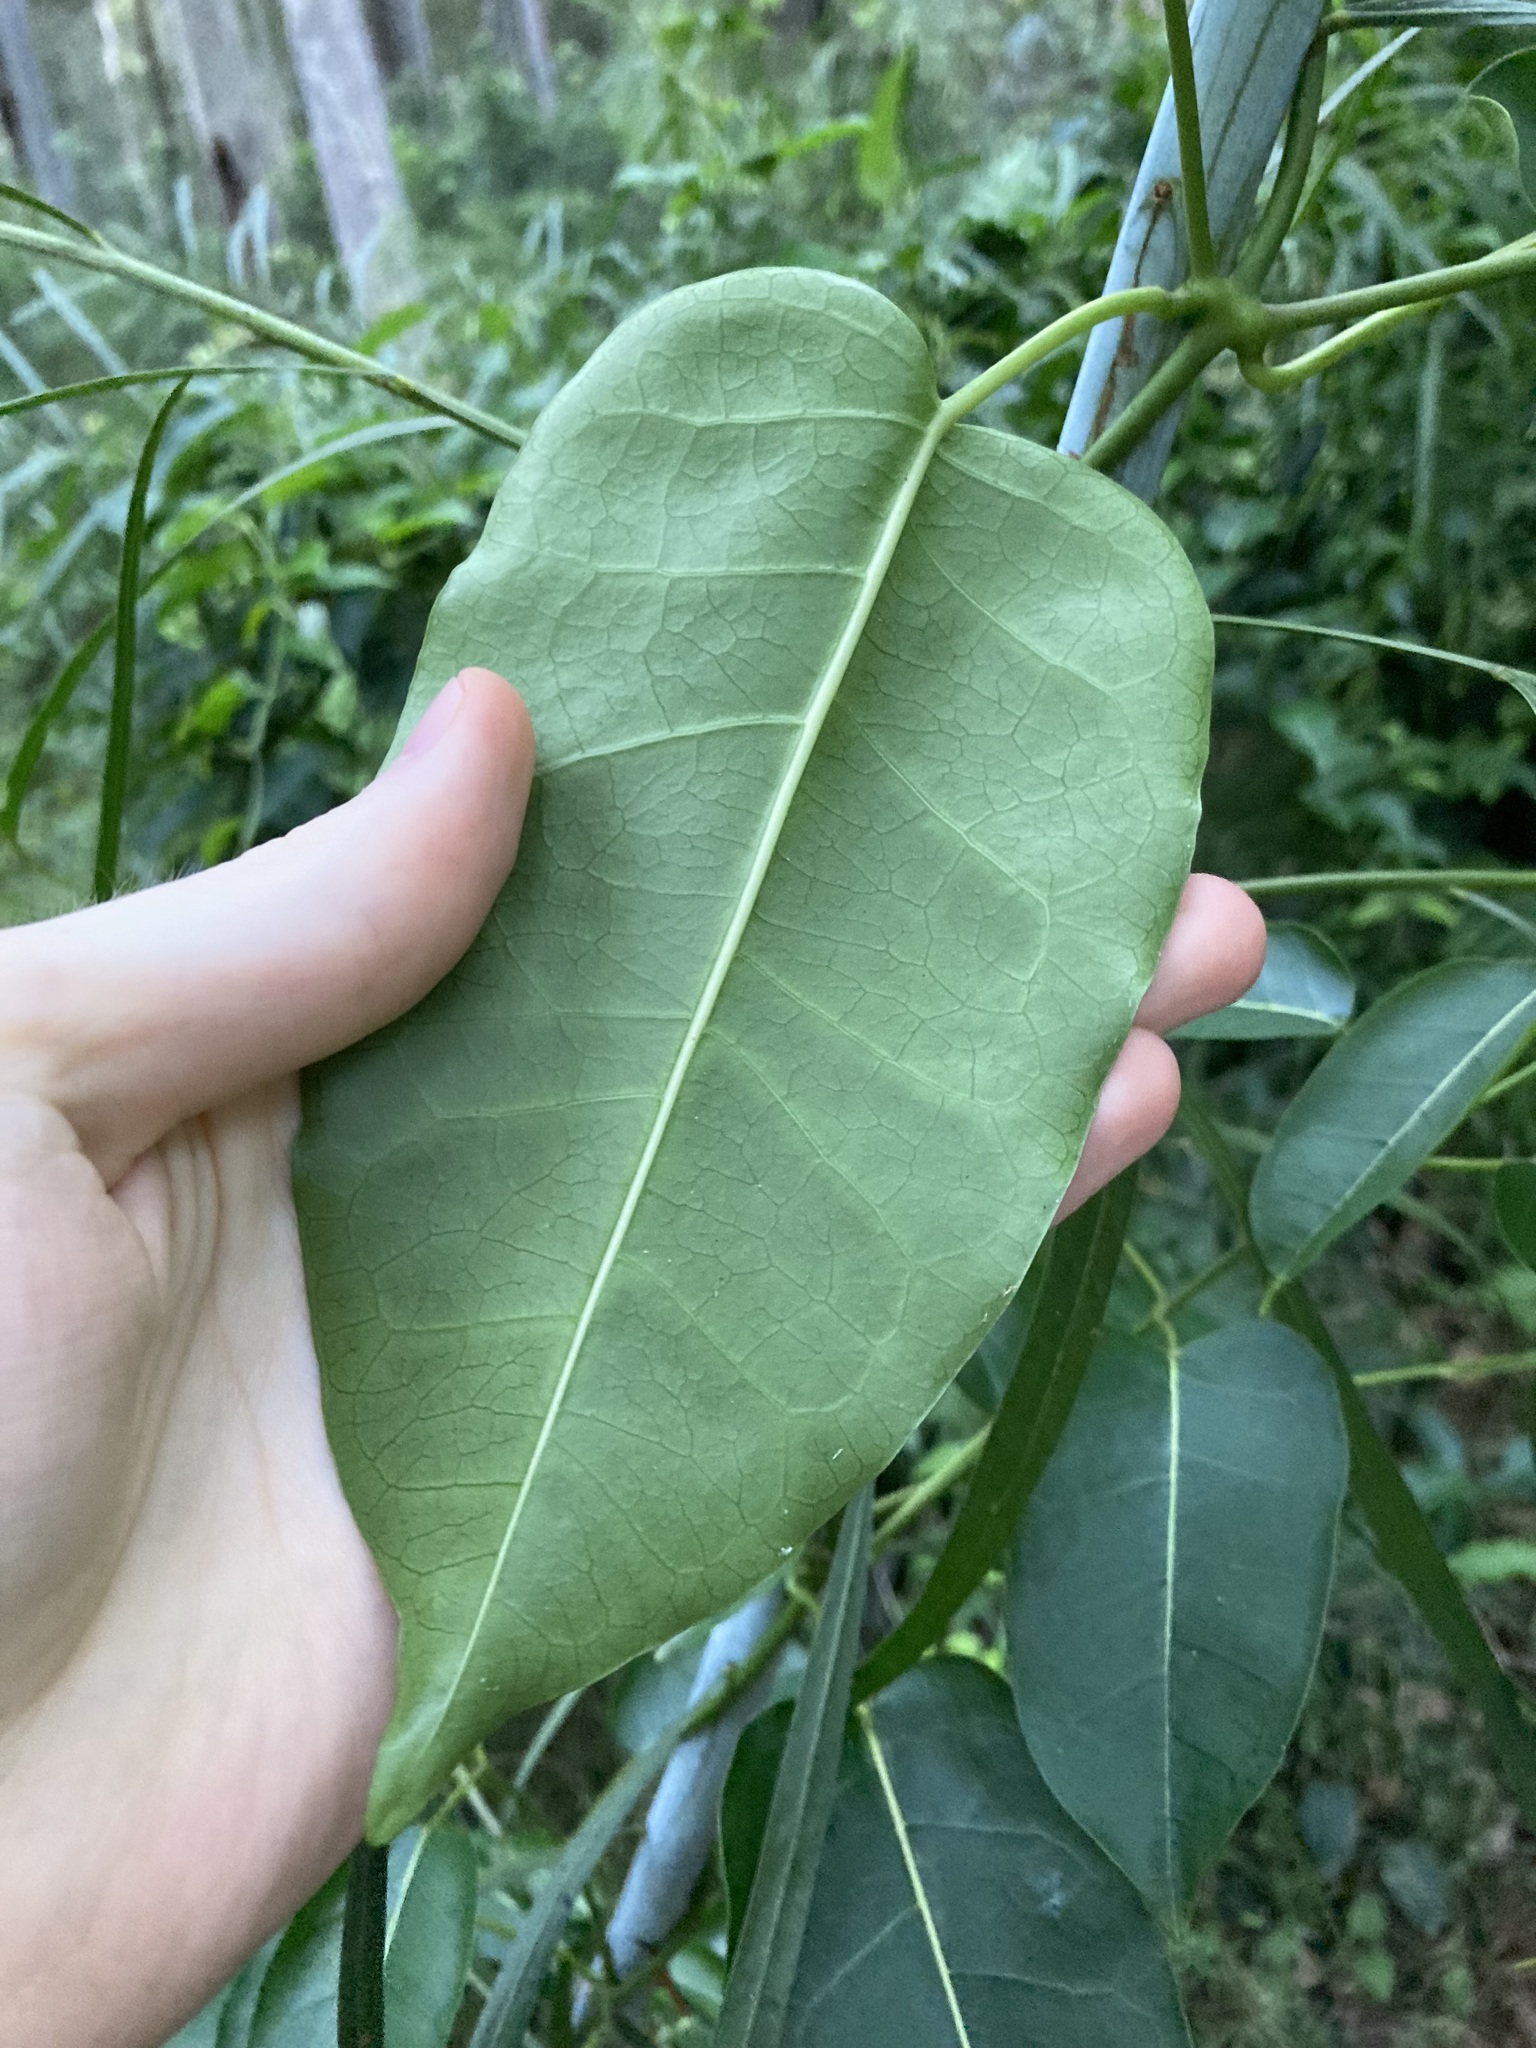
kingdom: Plantae
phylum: Tracheophyta
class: Magnoliopsida
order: Gentianales
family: Apocynaceae
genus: Leichhardtia
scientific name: Leichhardtia rostrata
